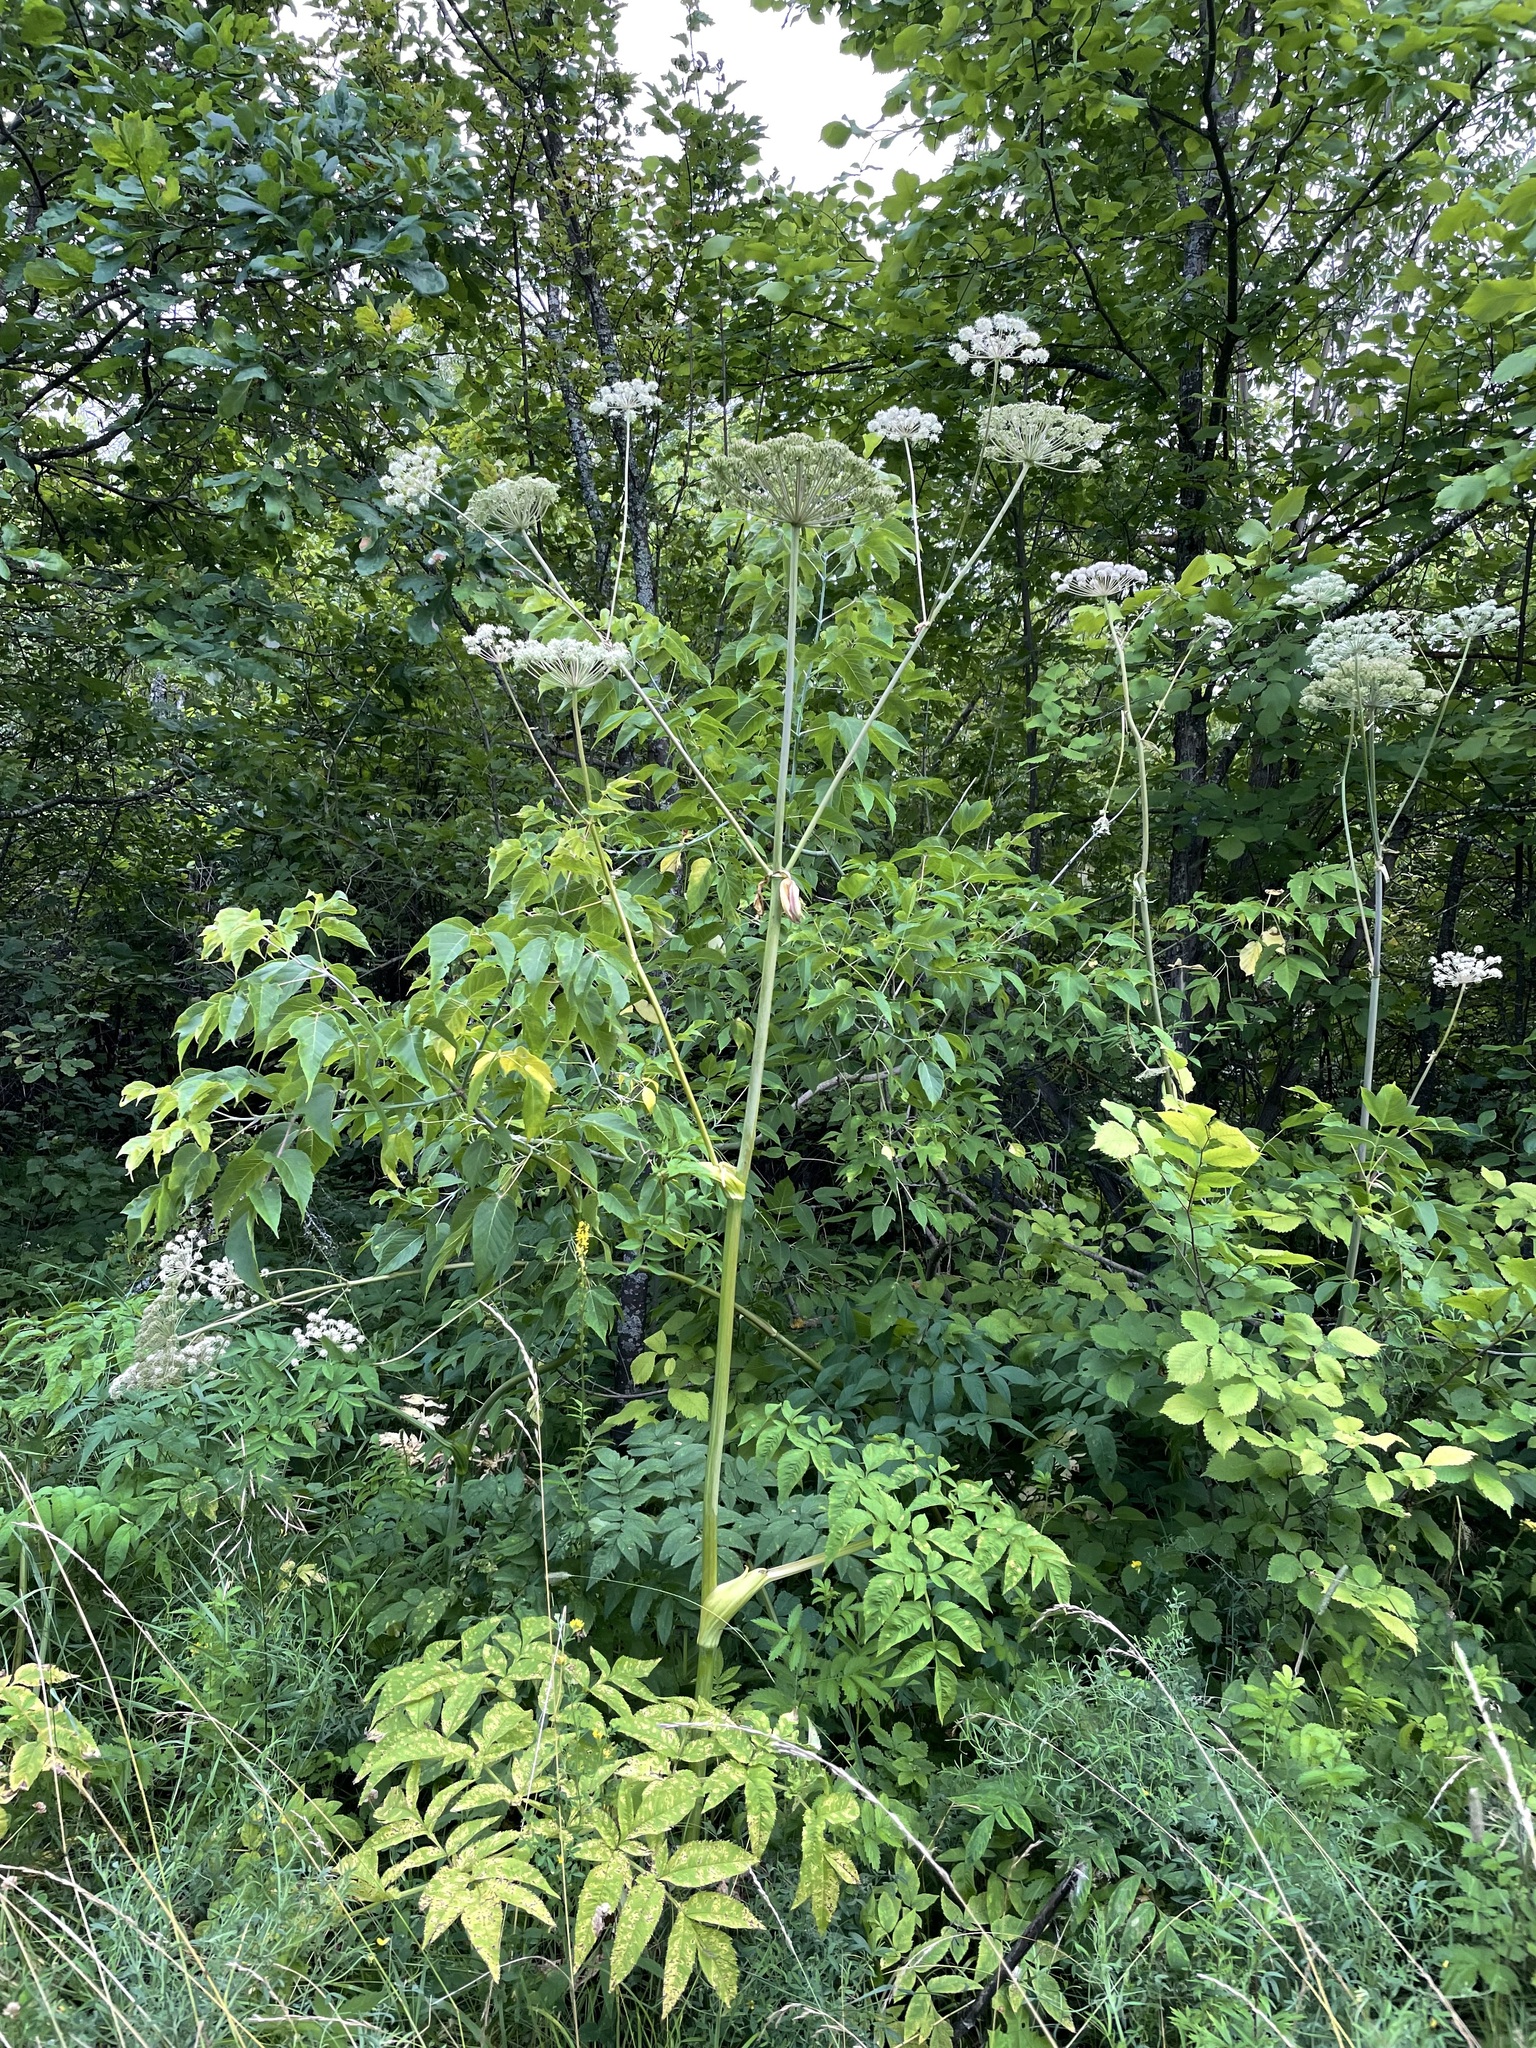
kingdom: Plantae
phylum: Tracheophyta
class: Magnoliopsida
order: Apiales
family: Apiaceae
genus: Angelica
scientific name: Angelica sylvestris
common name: Wild angelica
